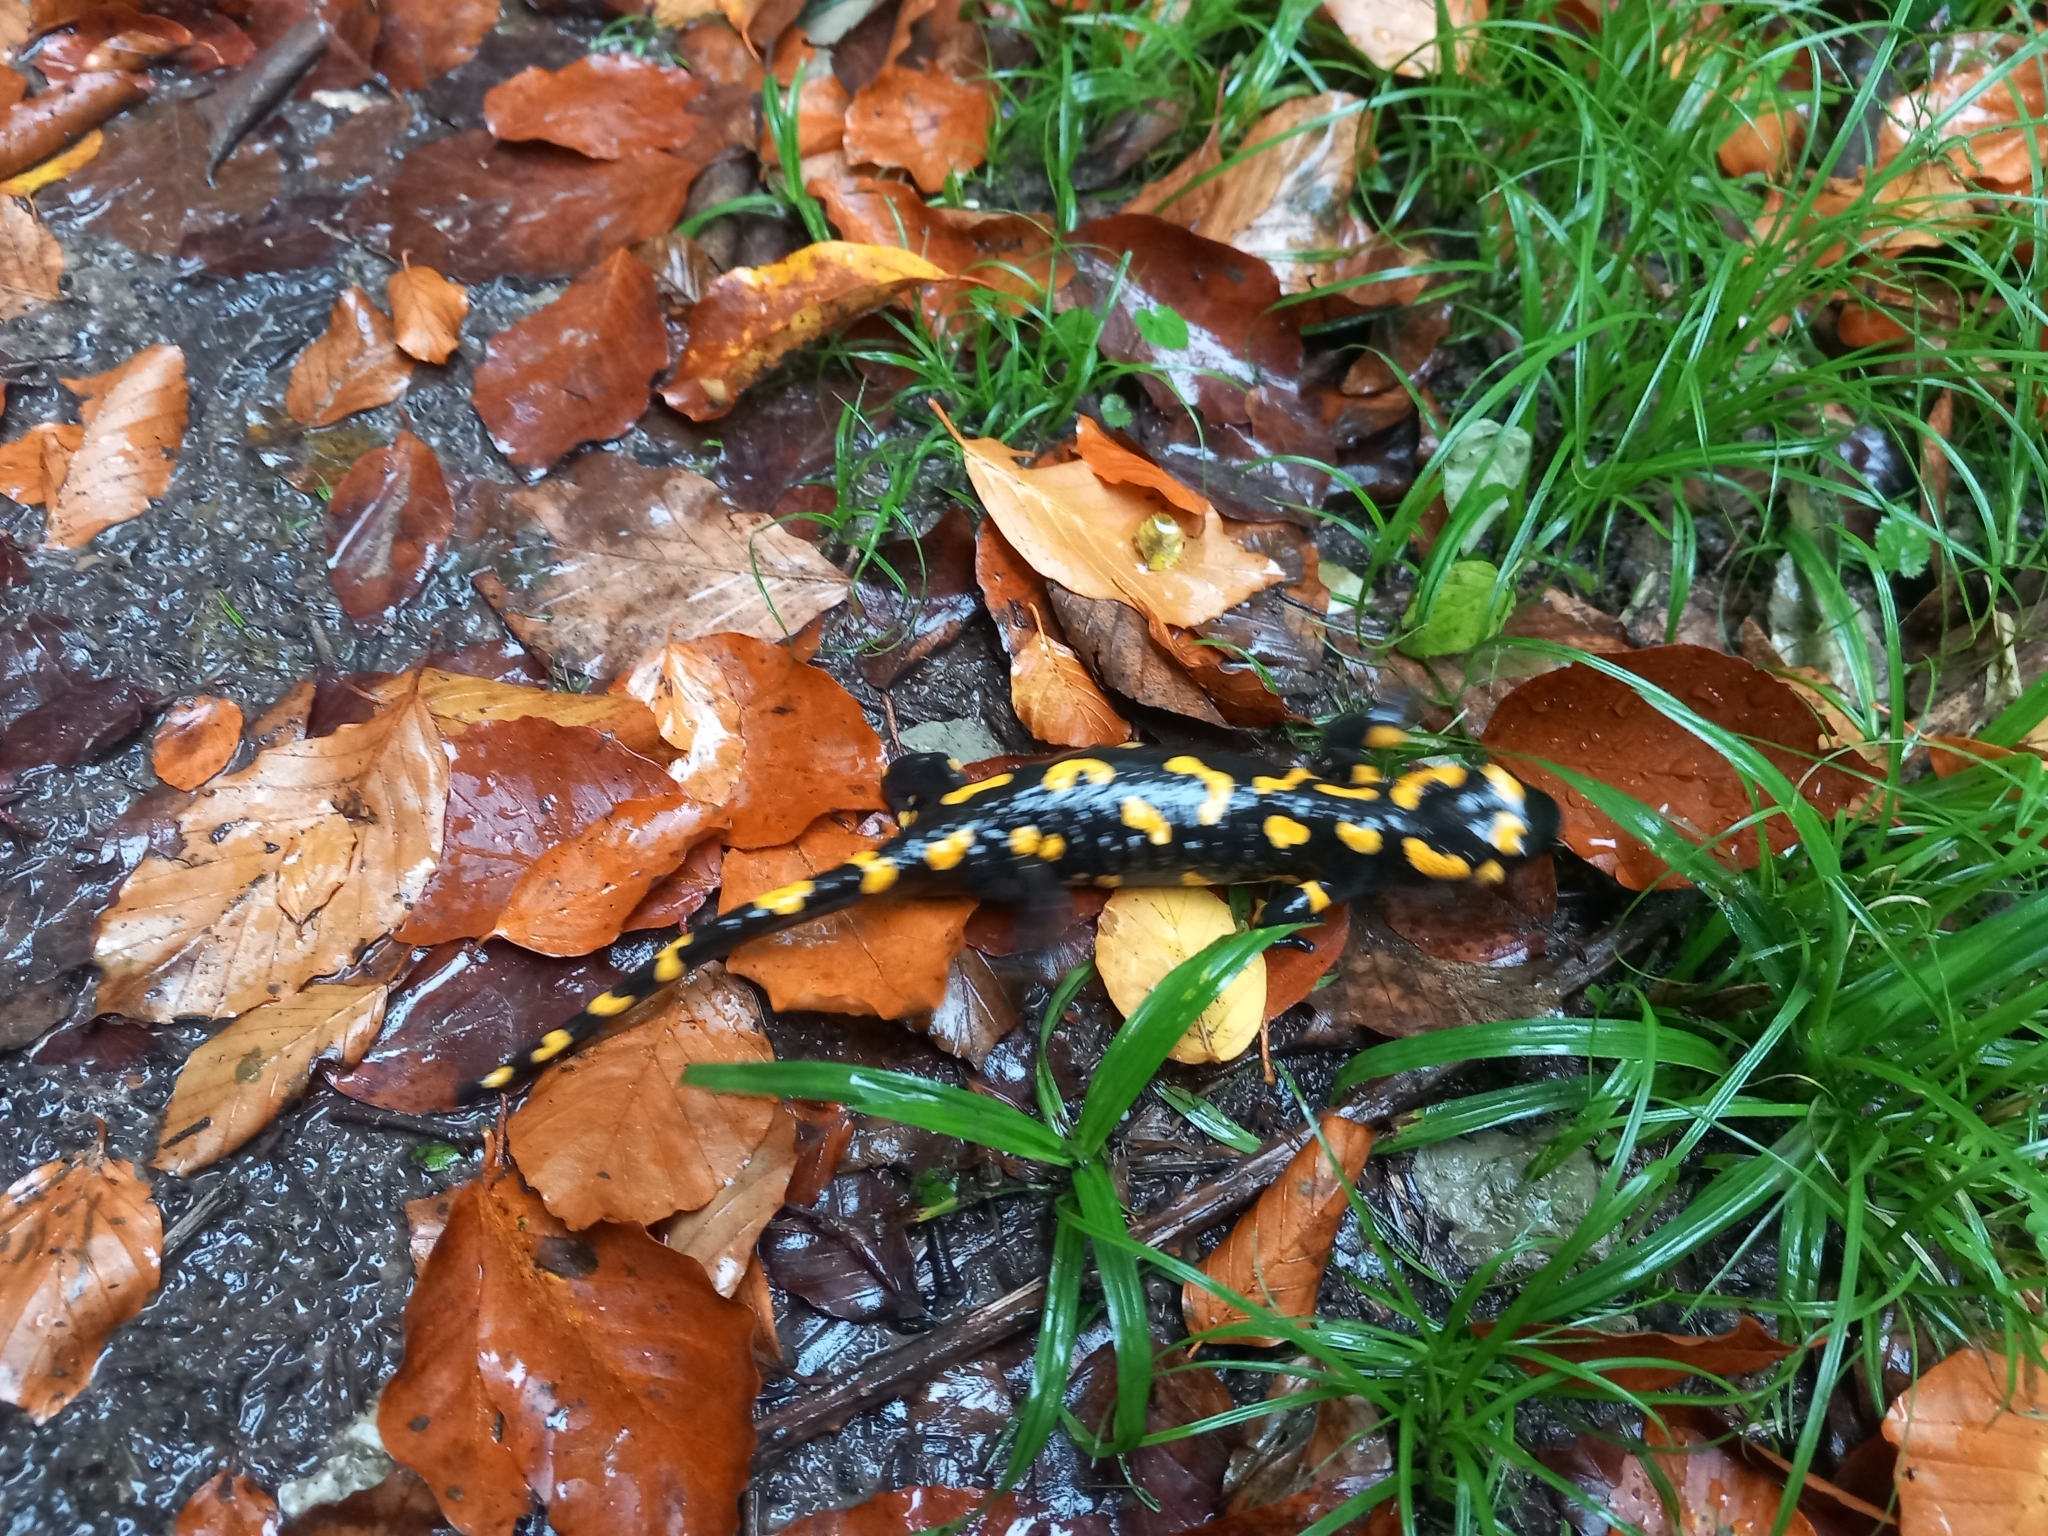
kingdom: Animalia
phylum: Chordata
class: Amphibia
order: Caudata
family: Salamandridae
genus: Salamandra
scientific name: Salamandra salamandra
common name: Fire salamander
